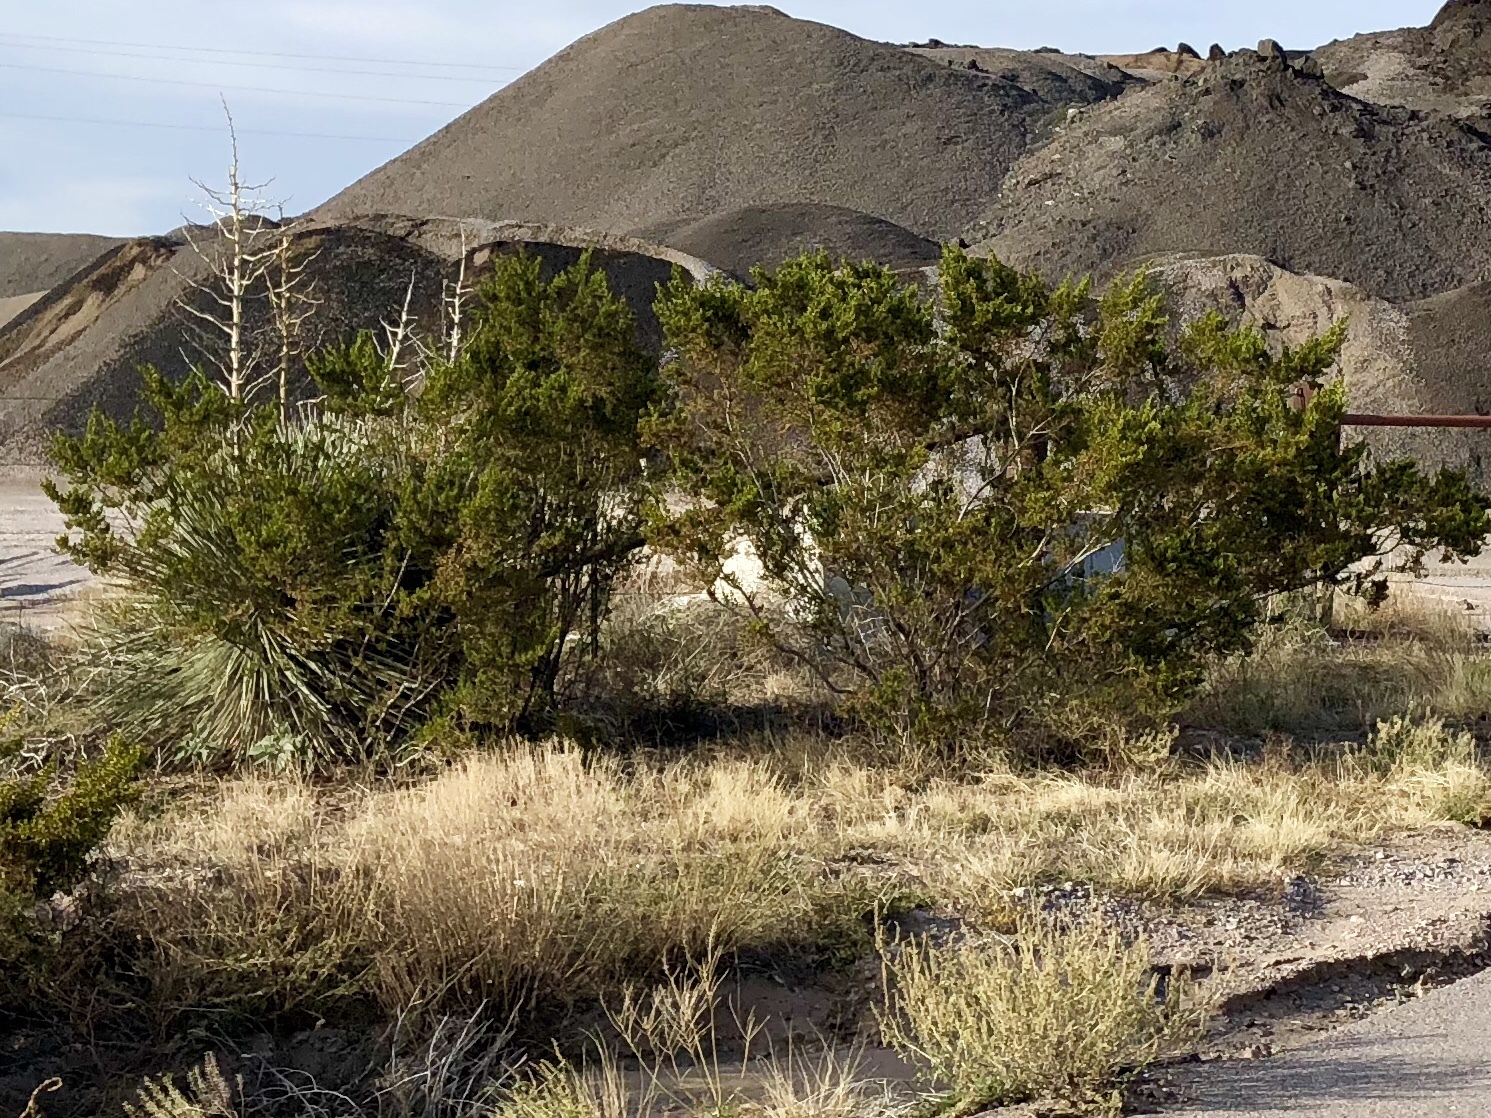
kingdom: Plantae
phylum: Tracheophyta
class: Magnoliopsida
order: Zygophyllales
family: Zygophyllaceae
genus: Larrea
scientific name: Larrea tridentata
